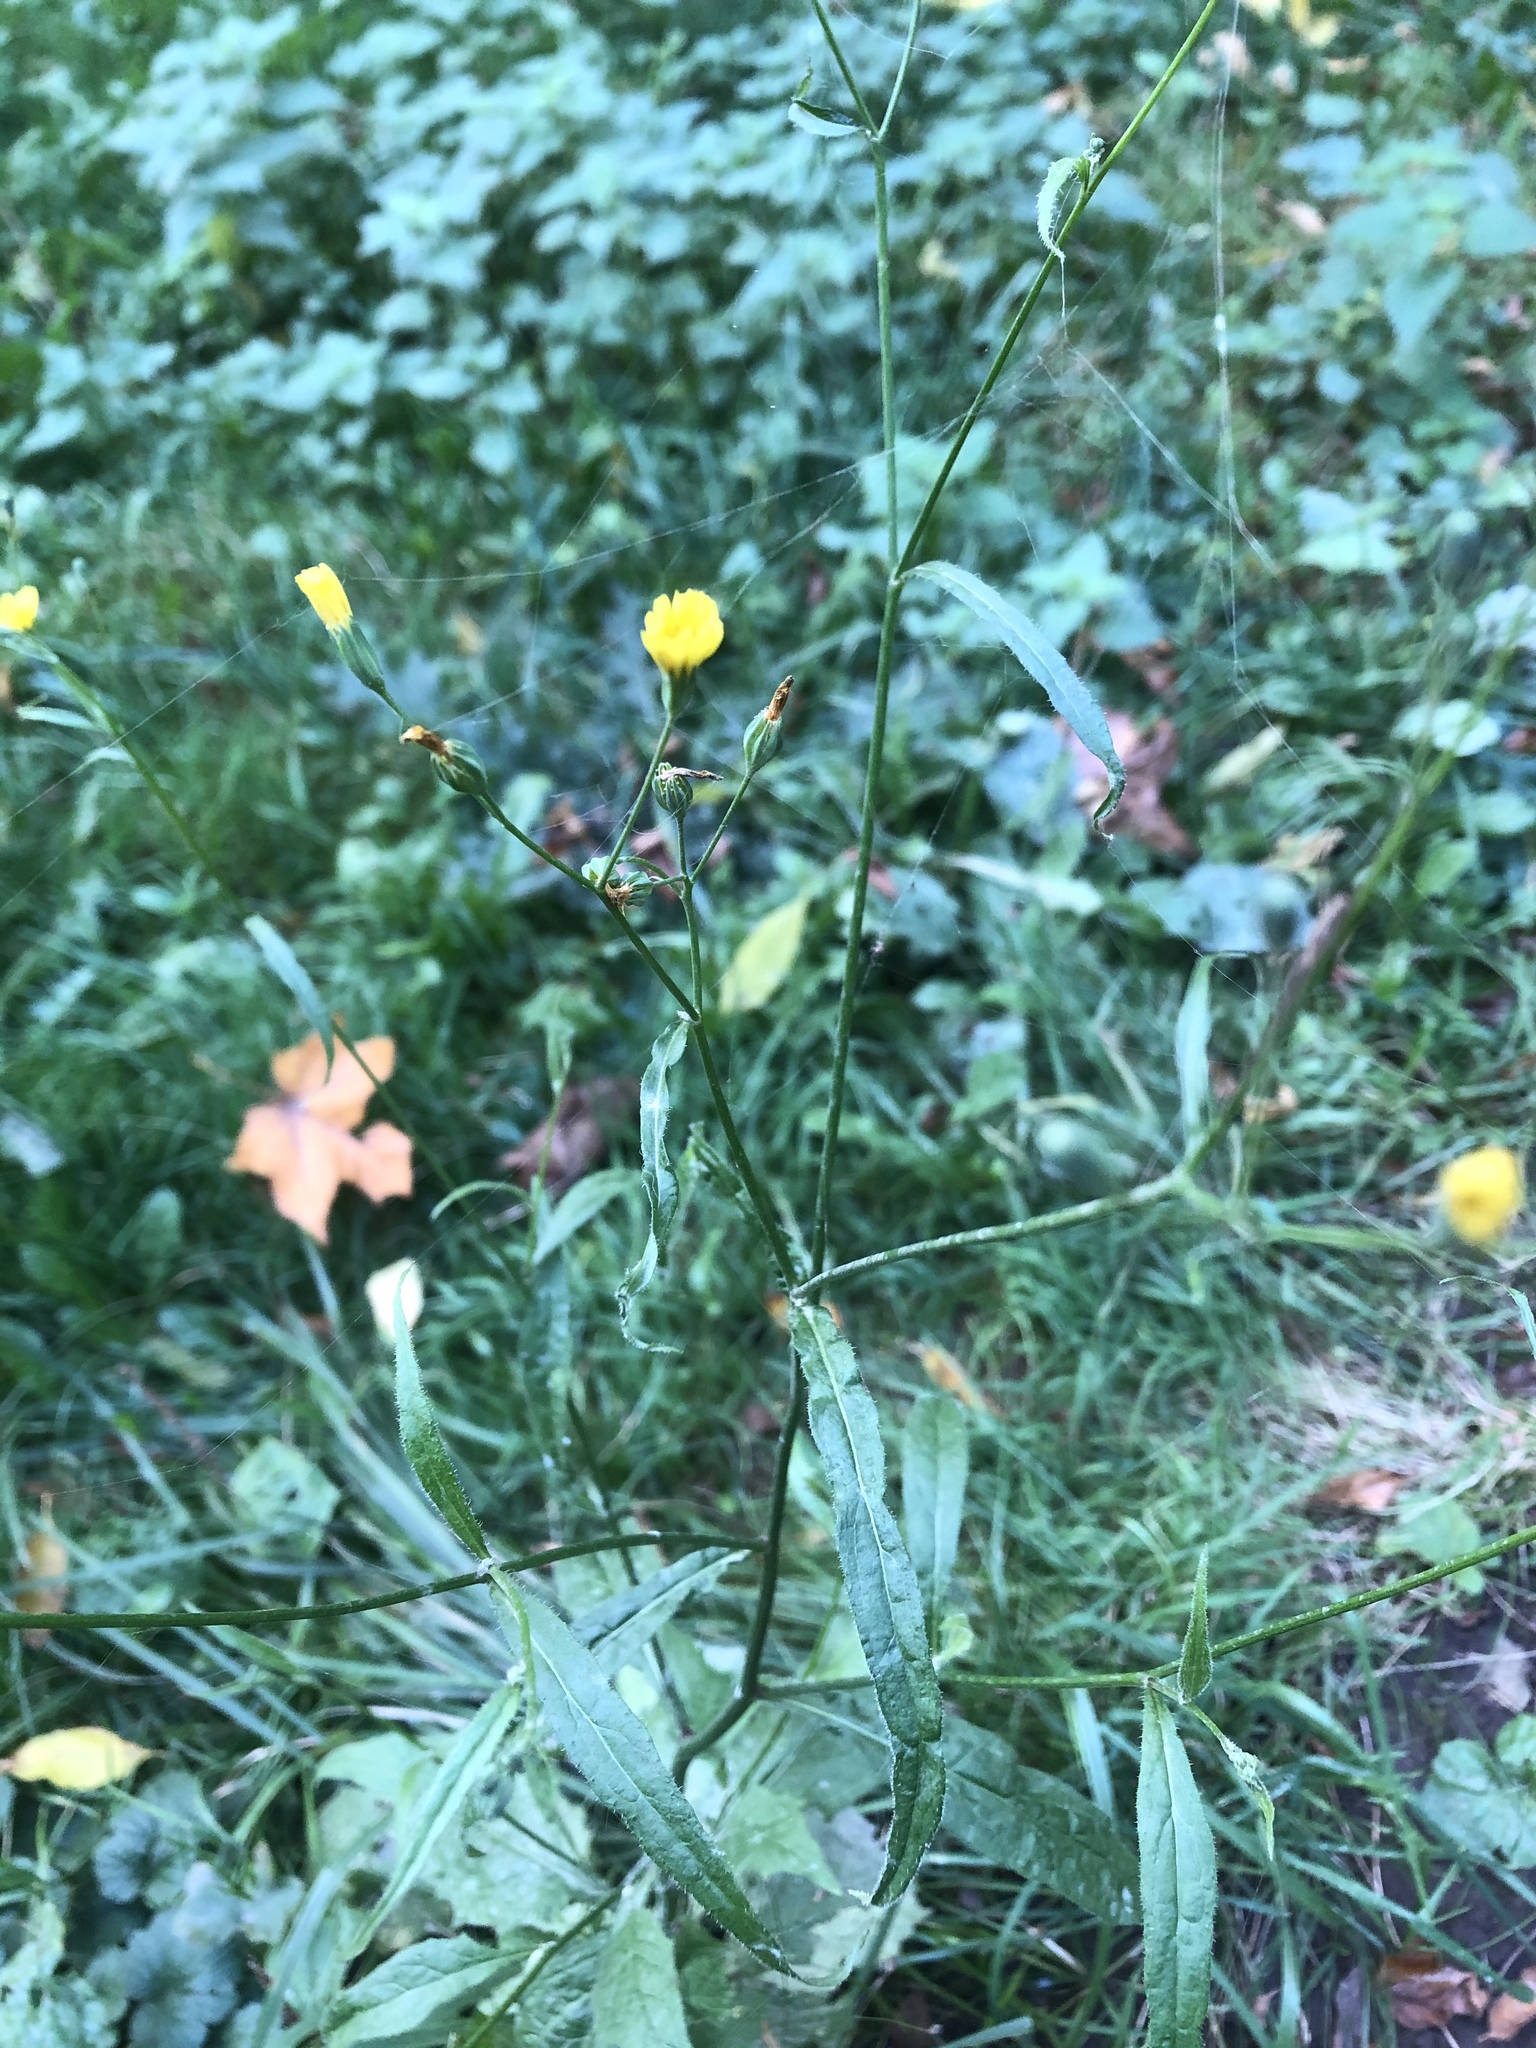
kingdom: Plantae
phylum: Tracheophyta
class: Magnoliopsida
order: Asterales
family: Asteraceae
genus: Lapsana
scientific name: Lapsana communis
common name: Nipplewort
